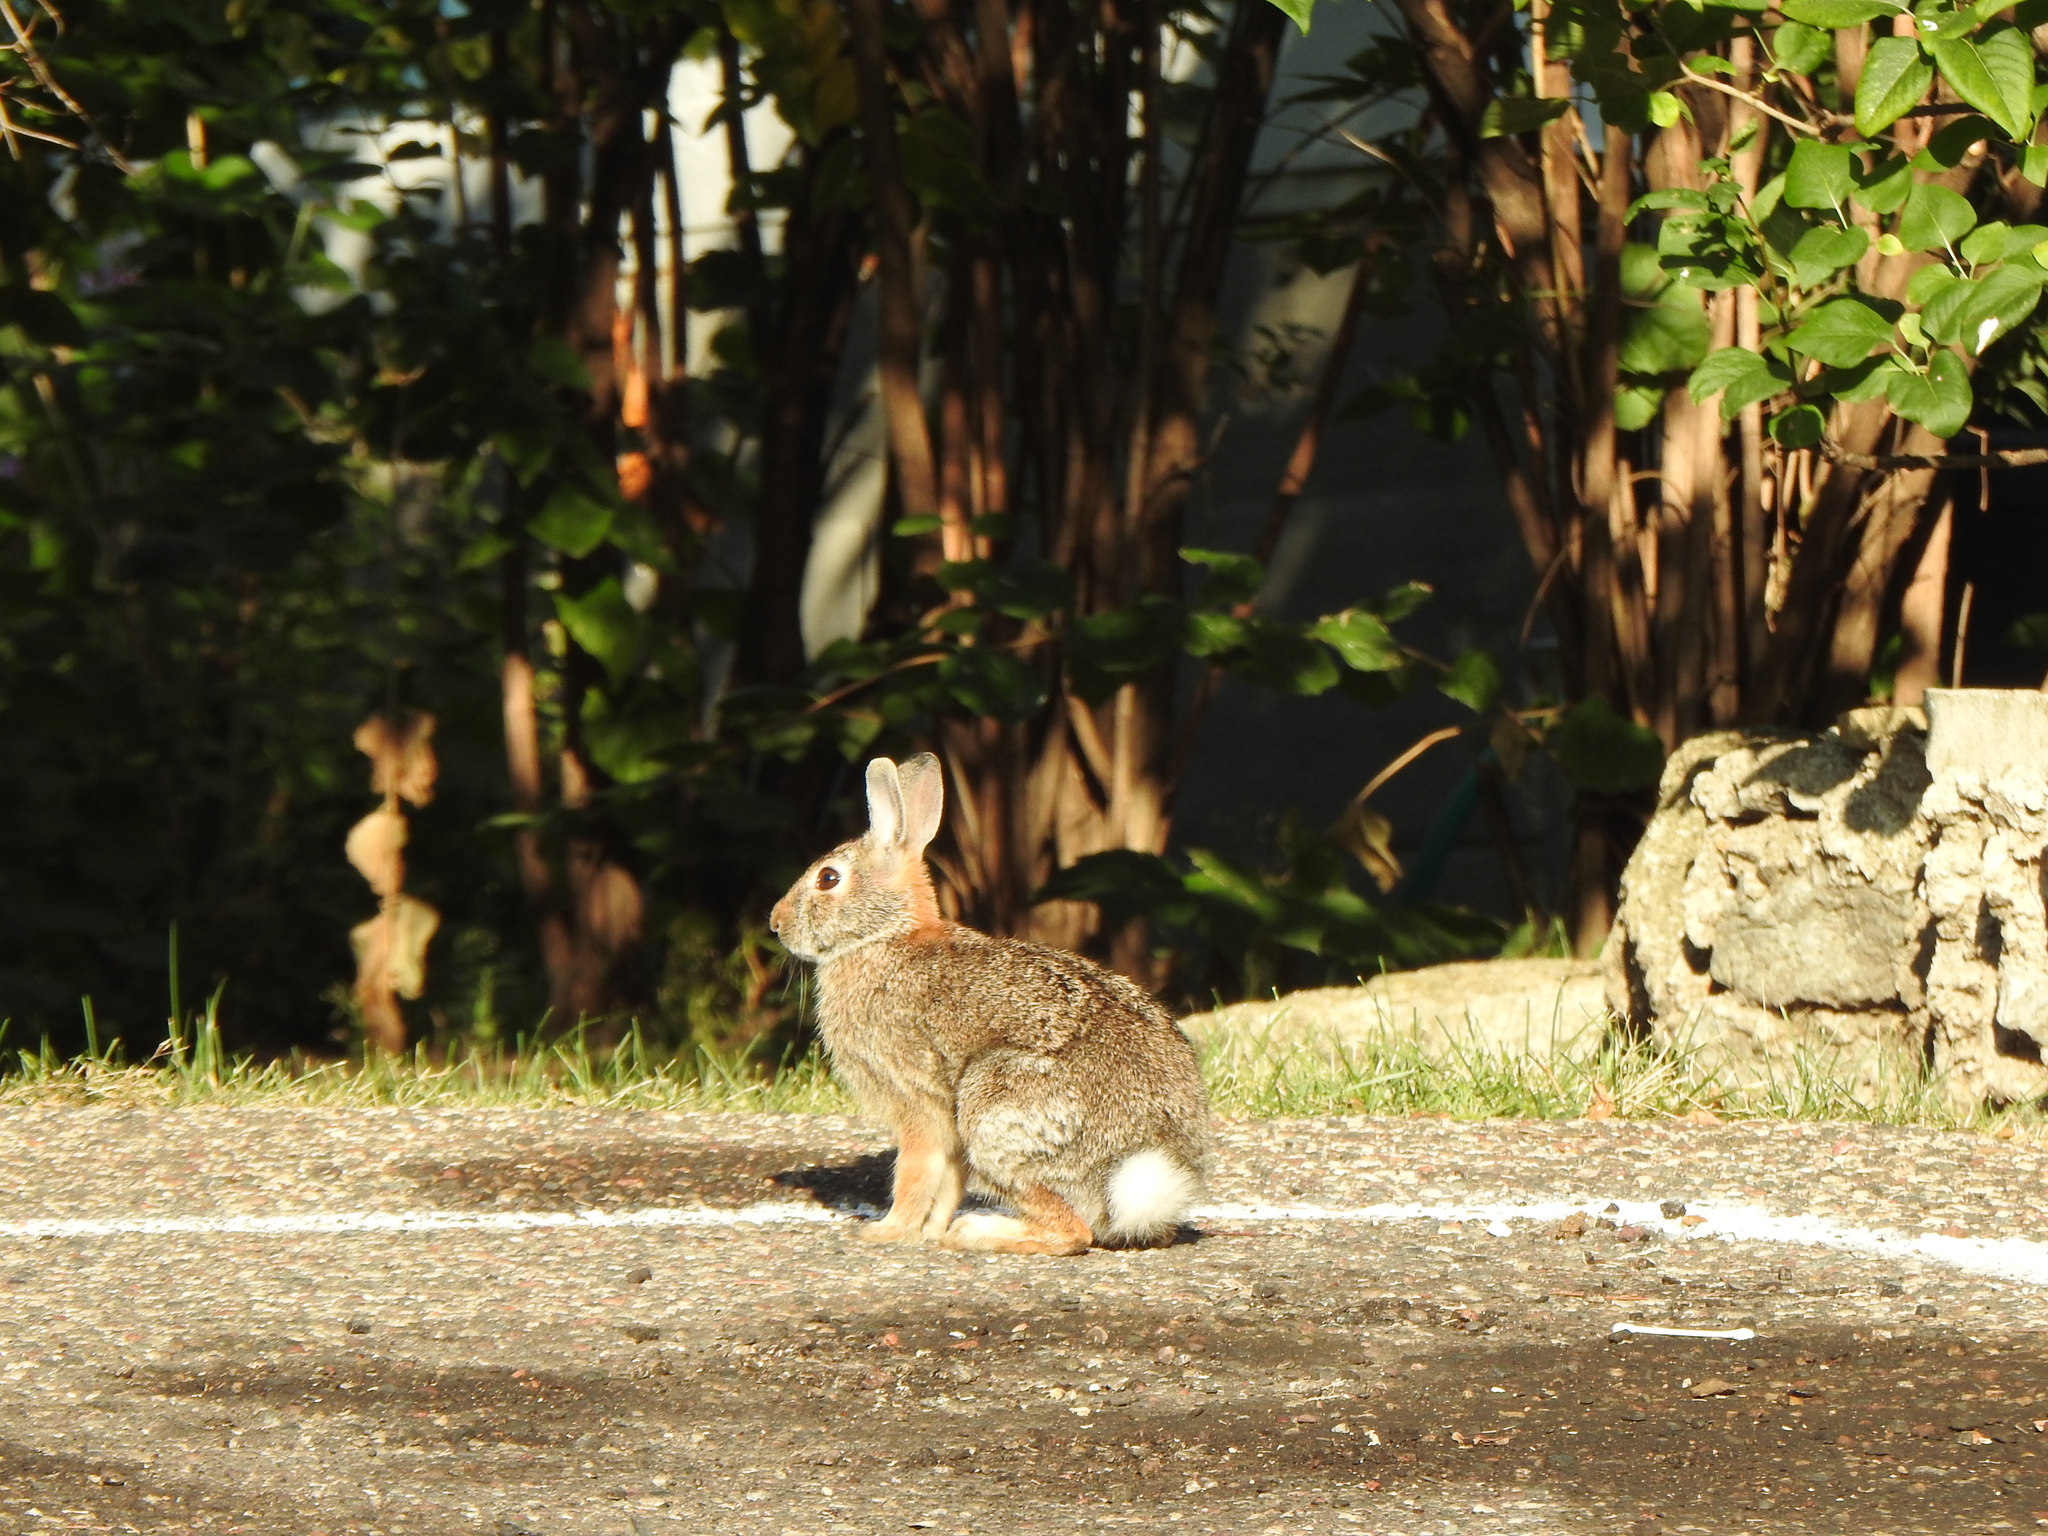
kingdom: Animalia
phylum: Chordata
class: Mammalia
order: Lagomorpha
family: Leporidae
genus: Sylvilagus
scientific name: Sylvilagus floridanus
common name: Eastern cottontail
